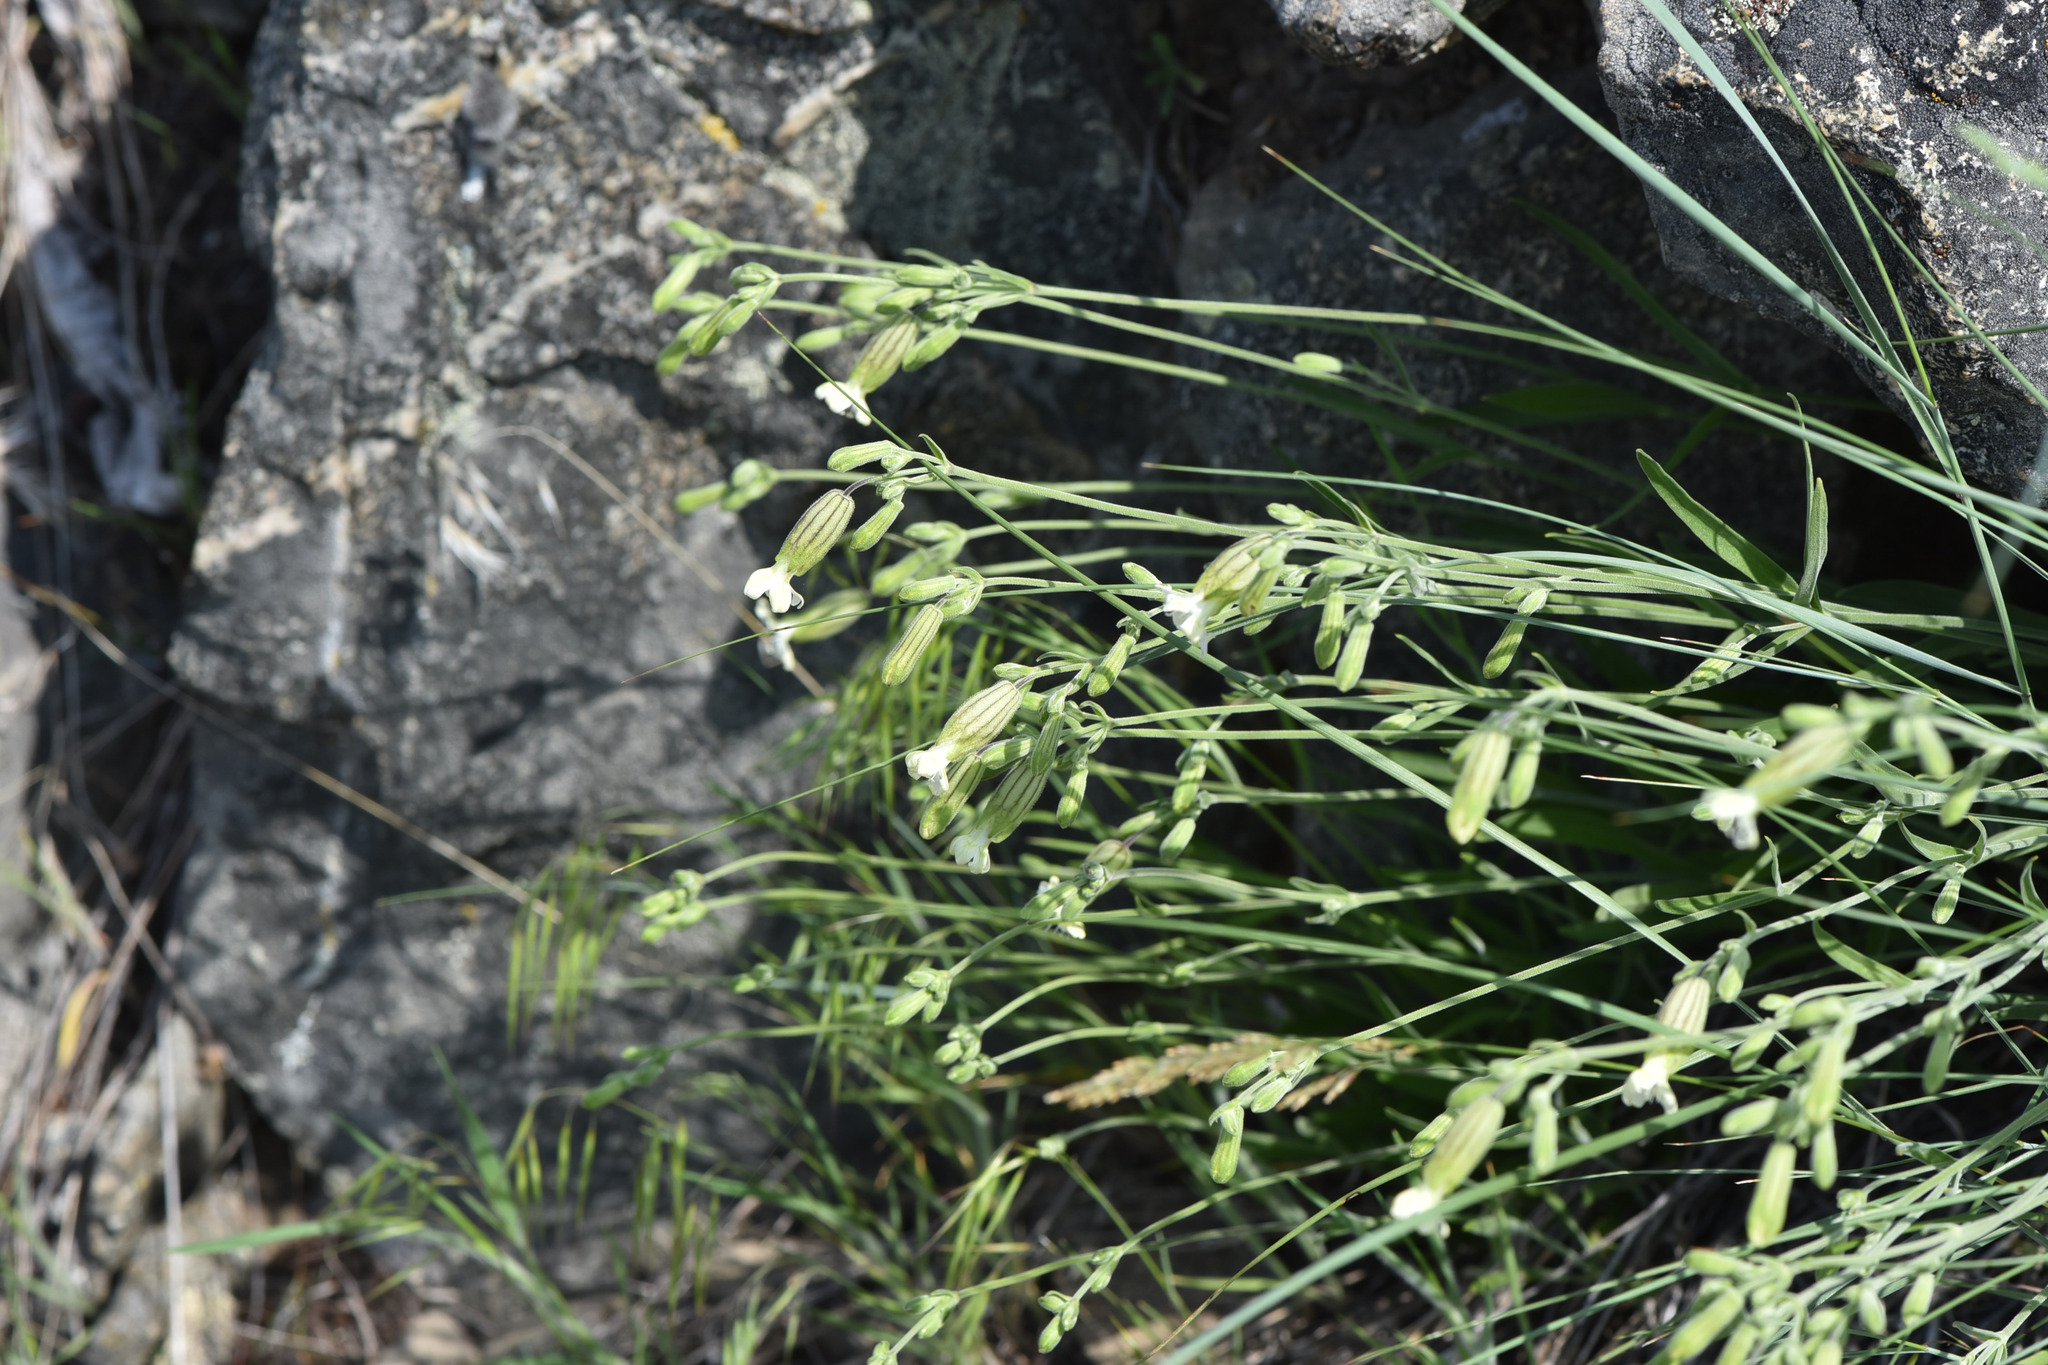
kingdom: Plantae
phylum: Tracheophyta
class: Magnoliopsida
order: Caryophyllales
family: Caryophyllaceae
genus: Silene
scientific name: Silene douglasii
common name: Douglas's catchfly
